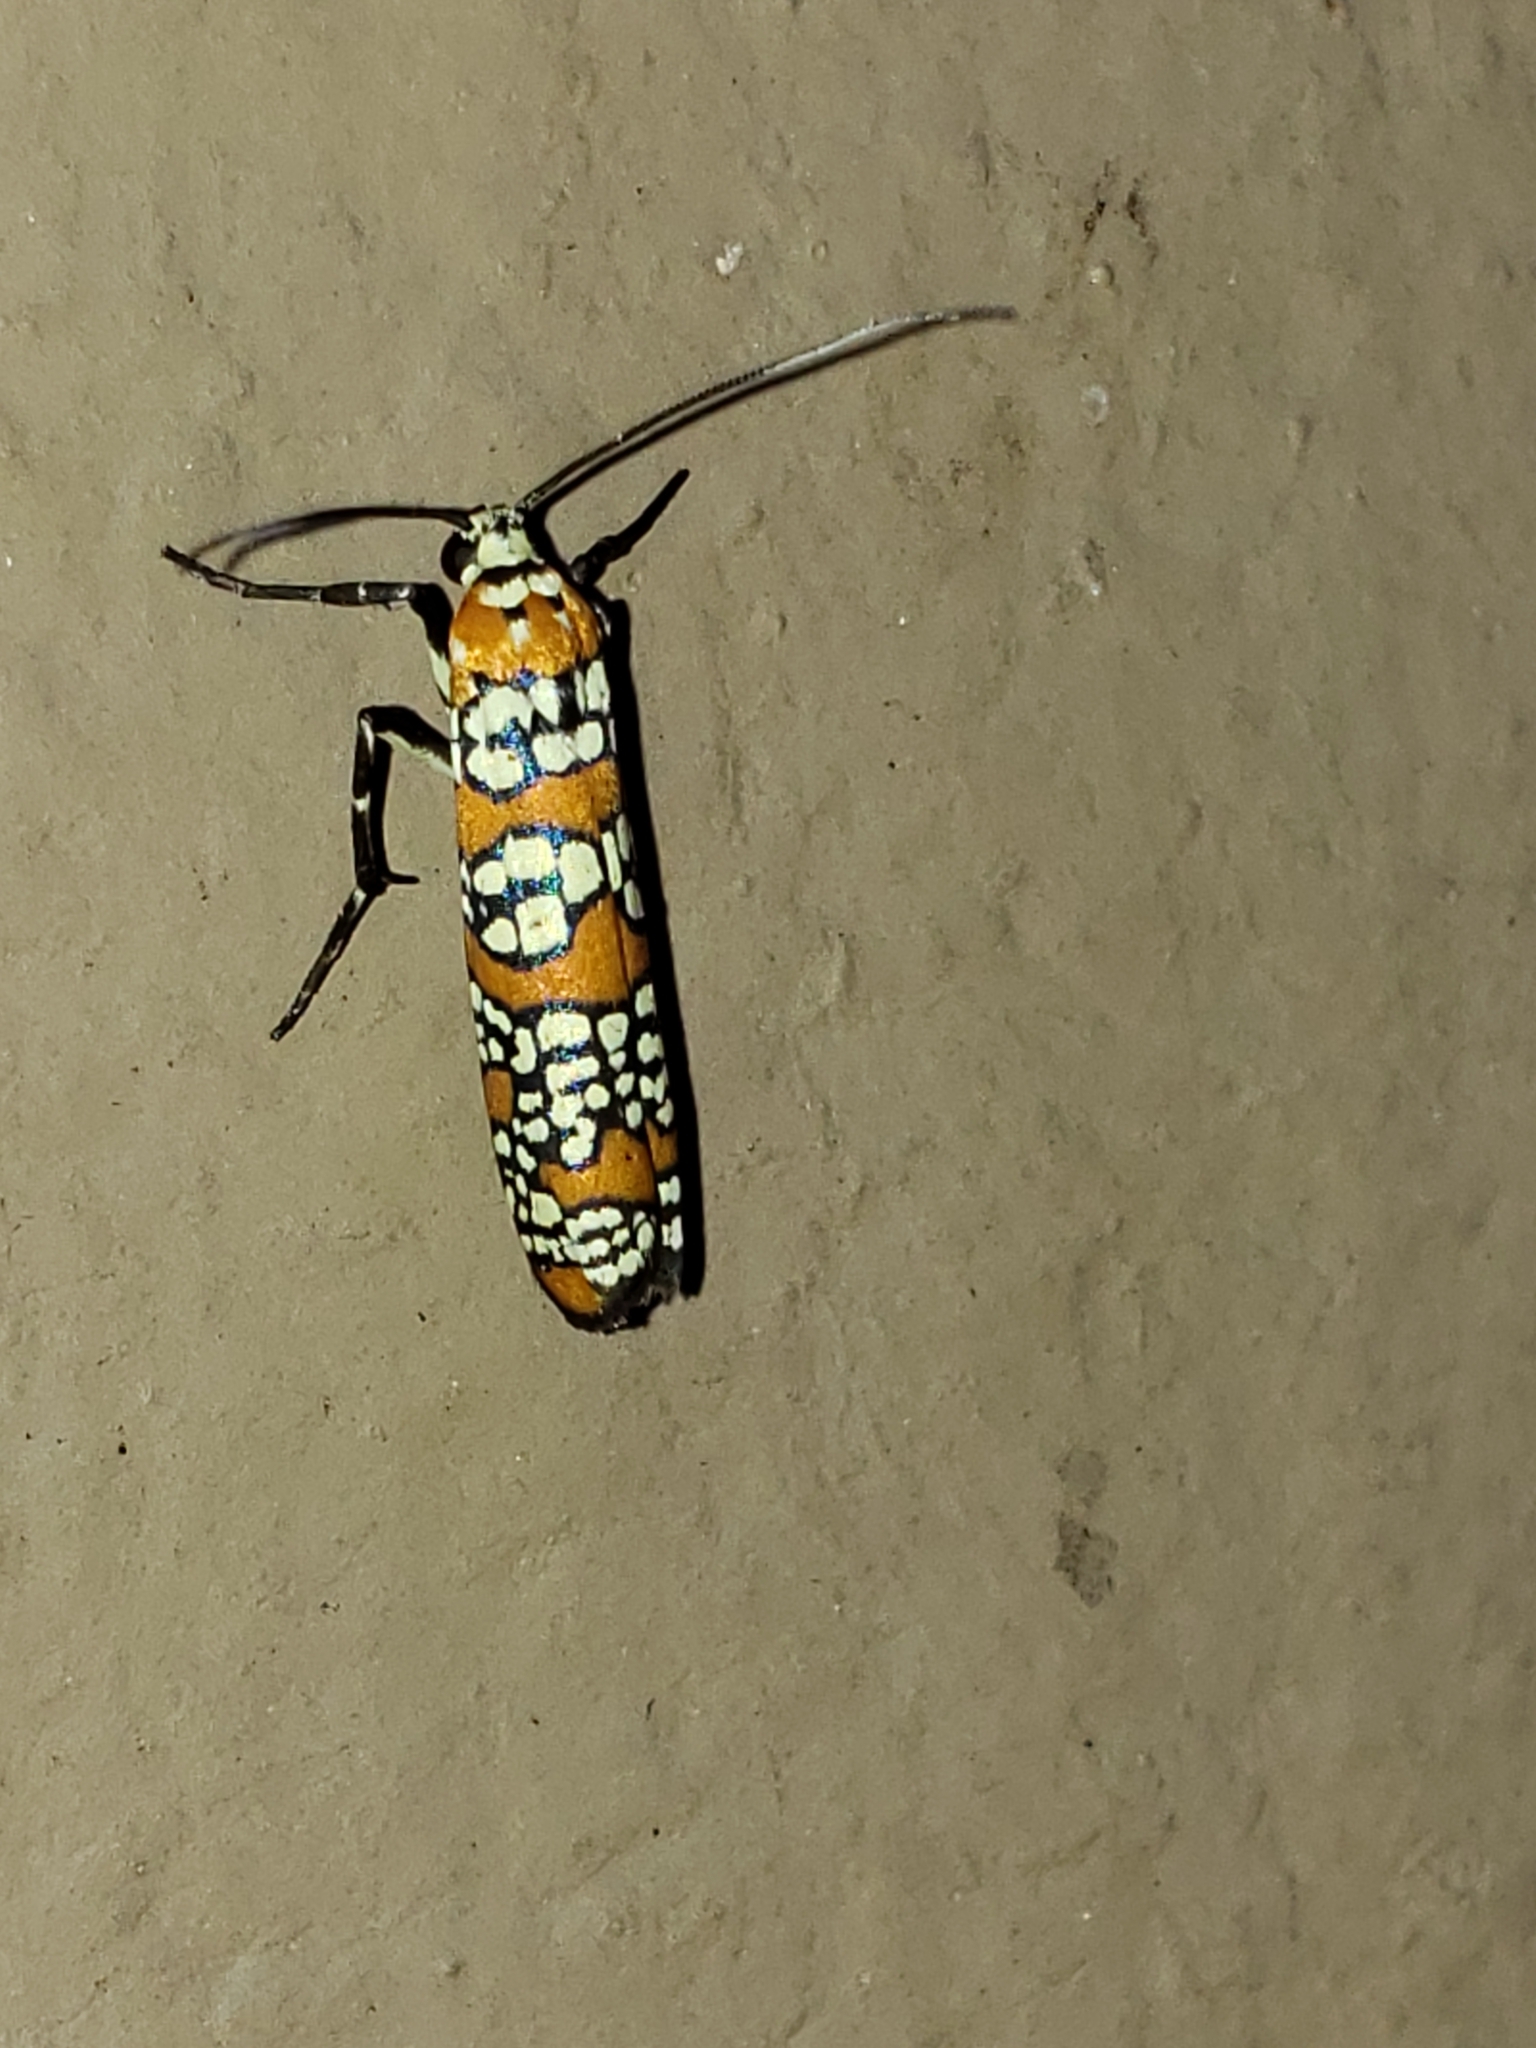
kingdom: Animalia
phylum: Arthropoda
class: Insecta
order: Lepidoptera
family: Attevidae
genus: Atteva
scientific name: Atteva punctella
